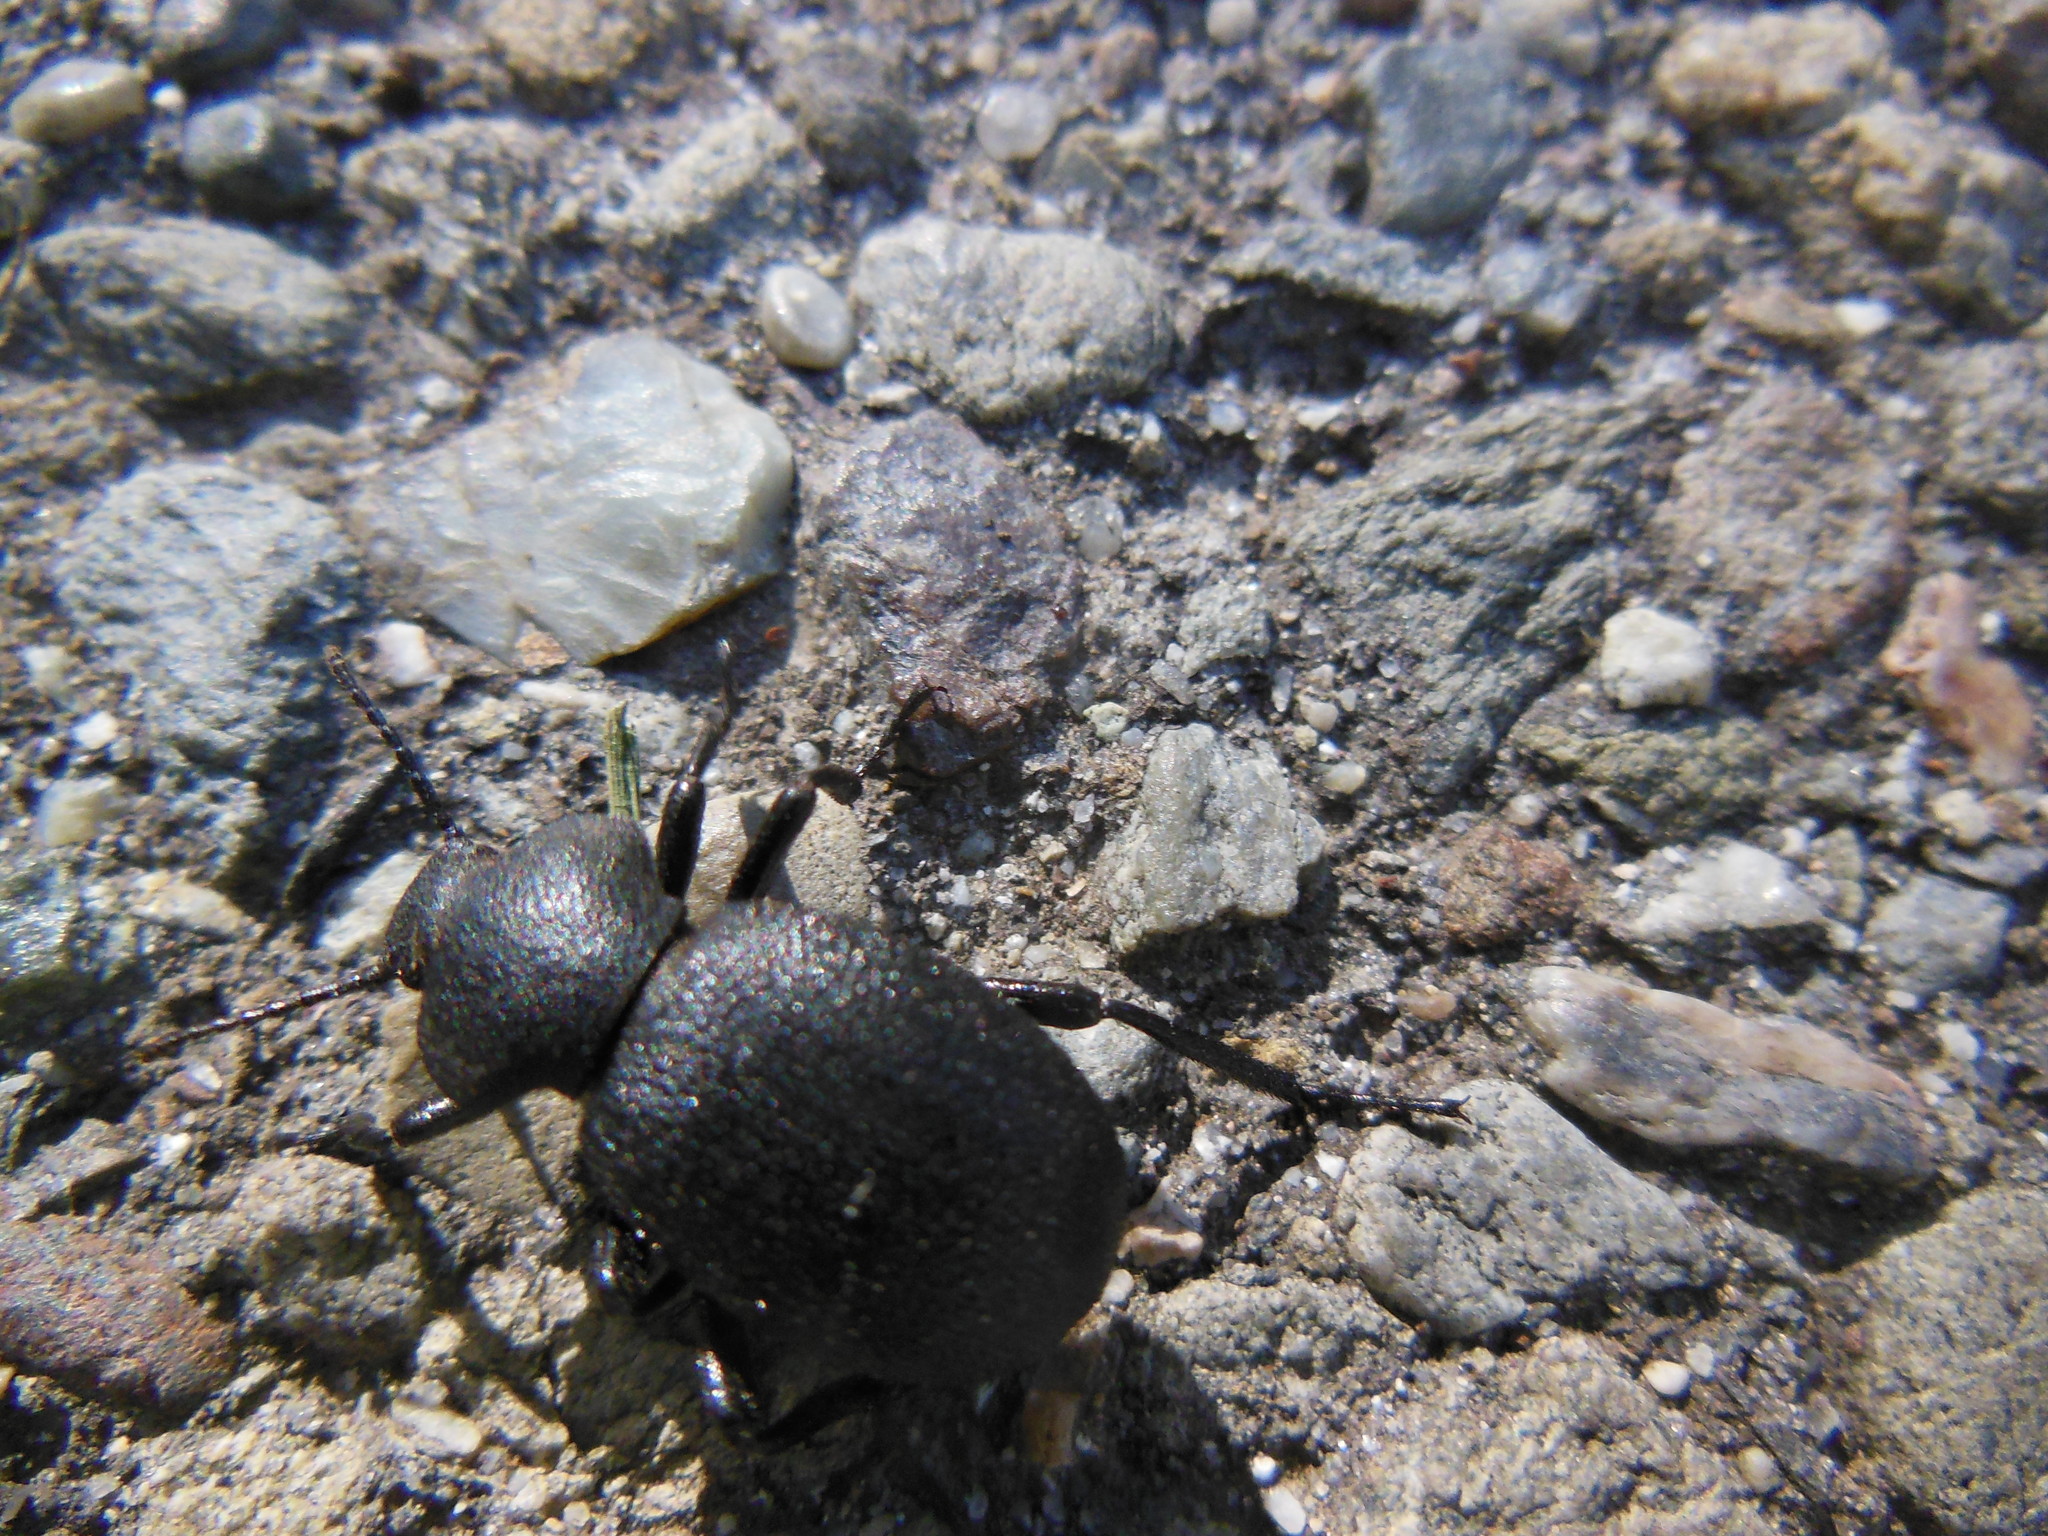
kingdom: Animalia
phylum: Arthropoda
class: Insecta
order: Coleoptera
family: Tenebrionidae
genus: Eleodes
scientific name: Eleodes cordata
